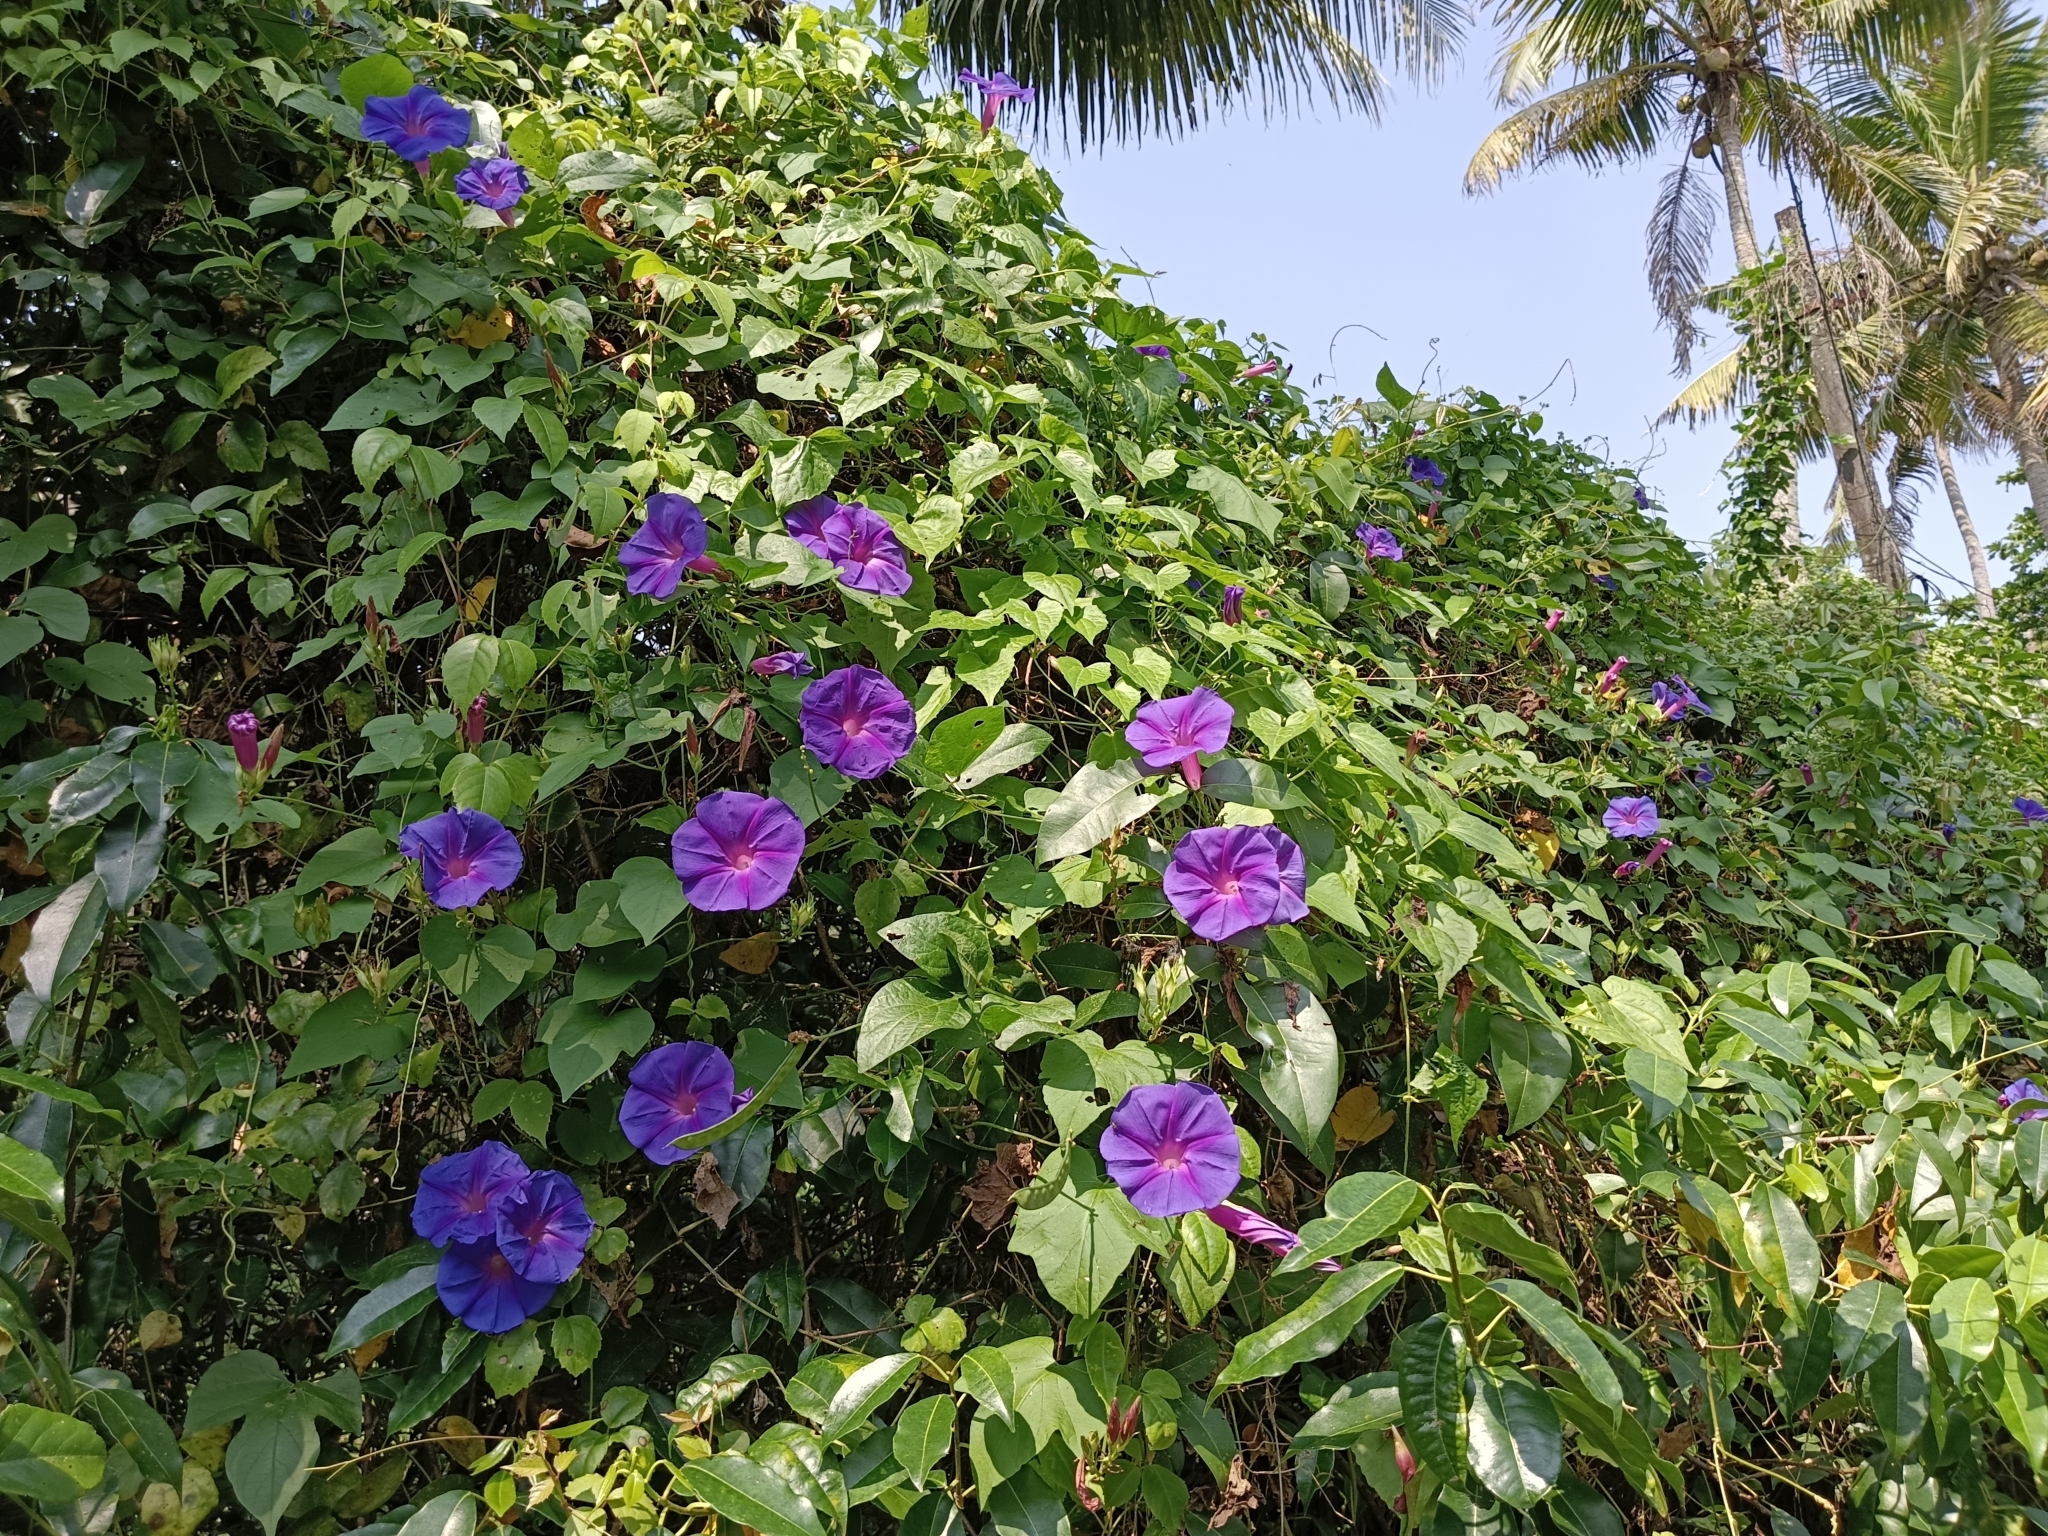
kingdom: Plantae
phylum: Tracheophyta
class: Magnoliopsida
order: Solanales
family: Convolvulaceae
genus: Ipomoea
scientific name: Ipomoea indica
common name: Blue dawnflower
